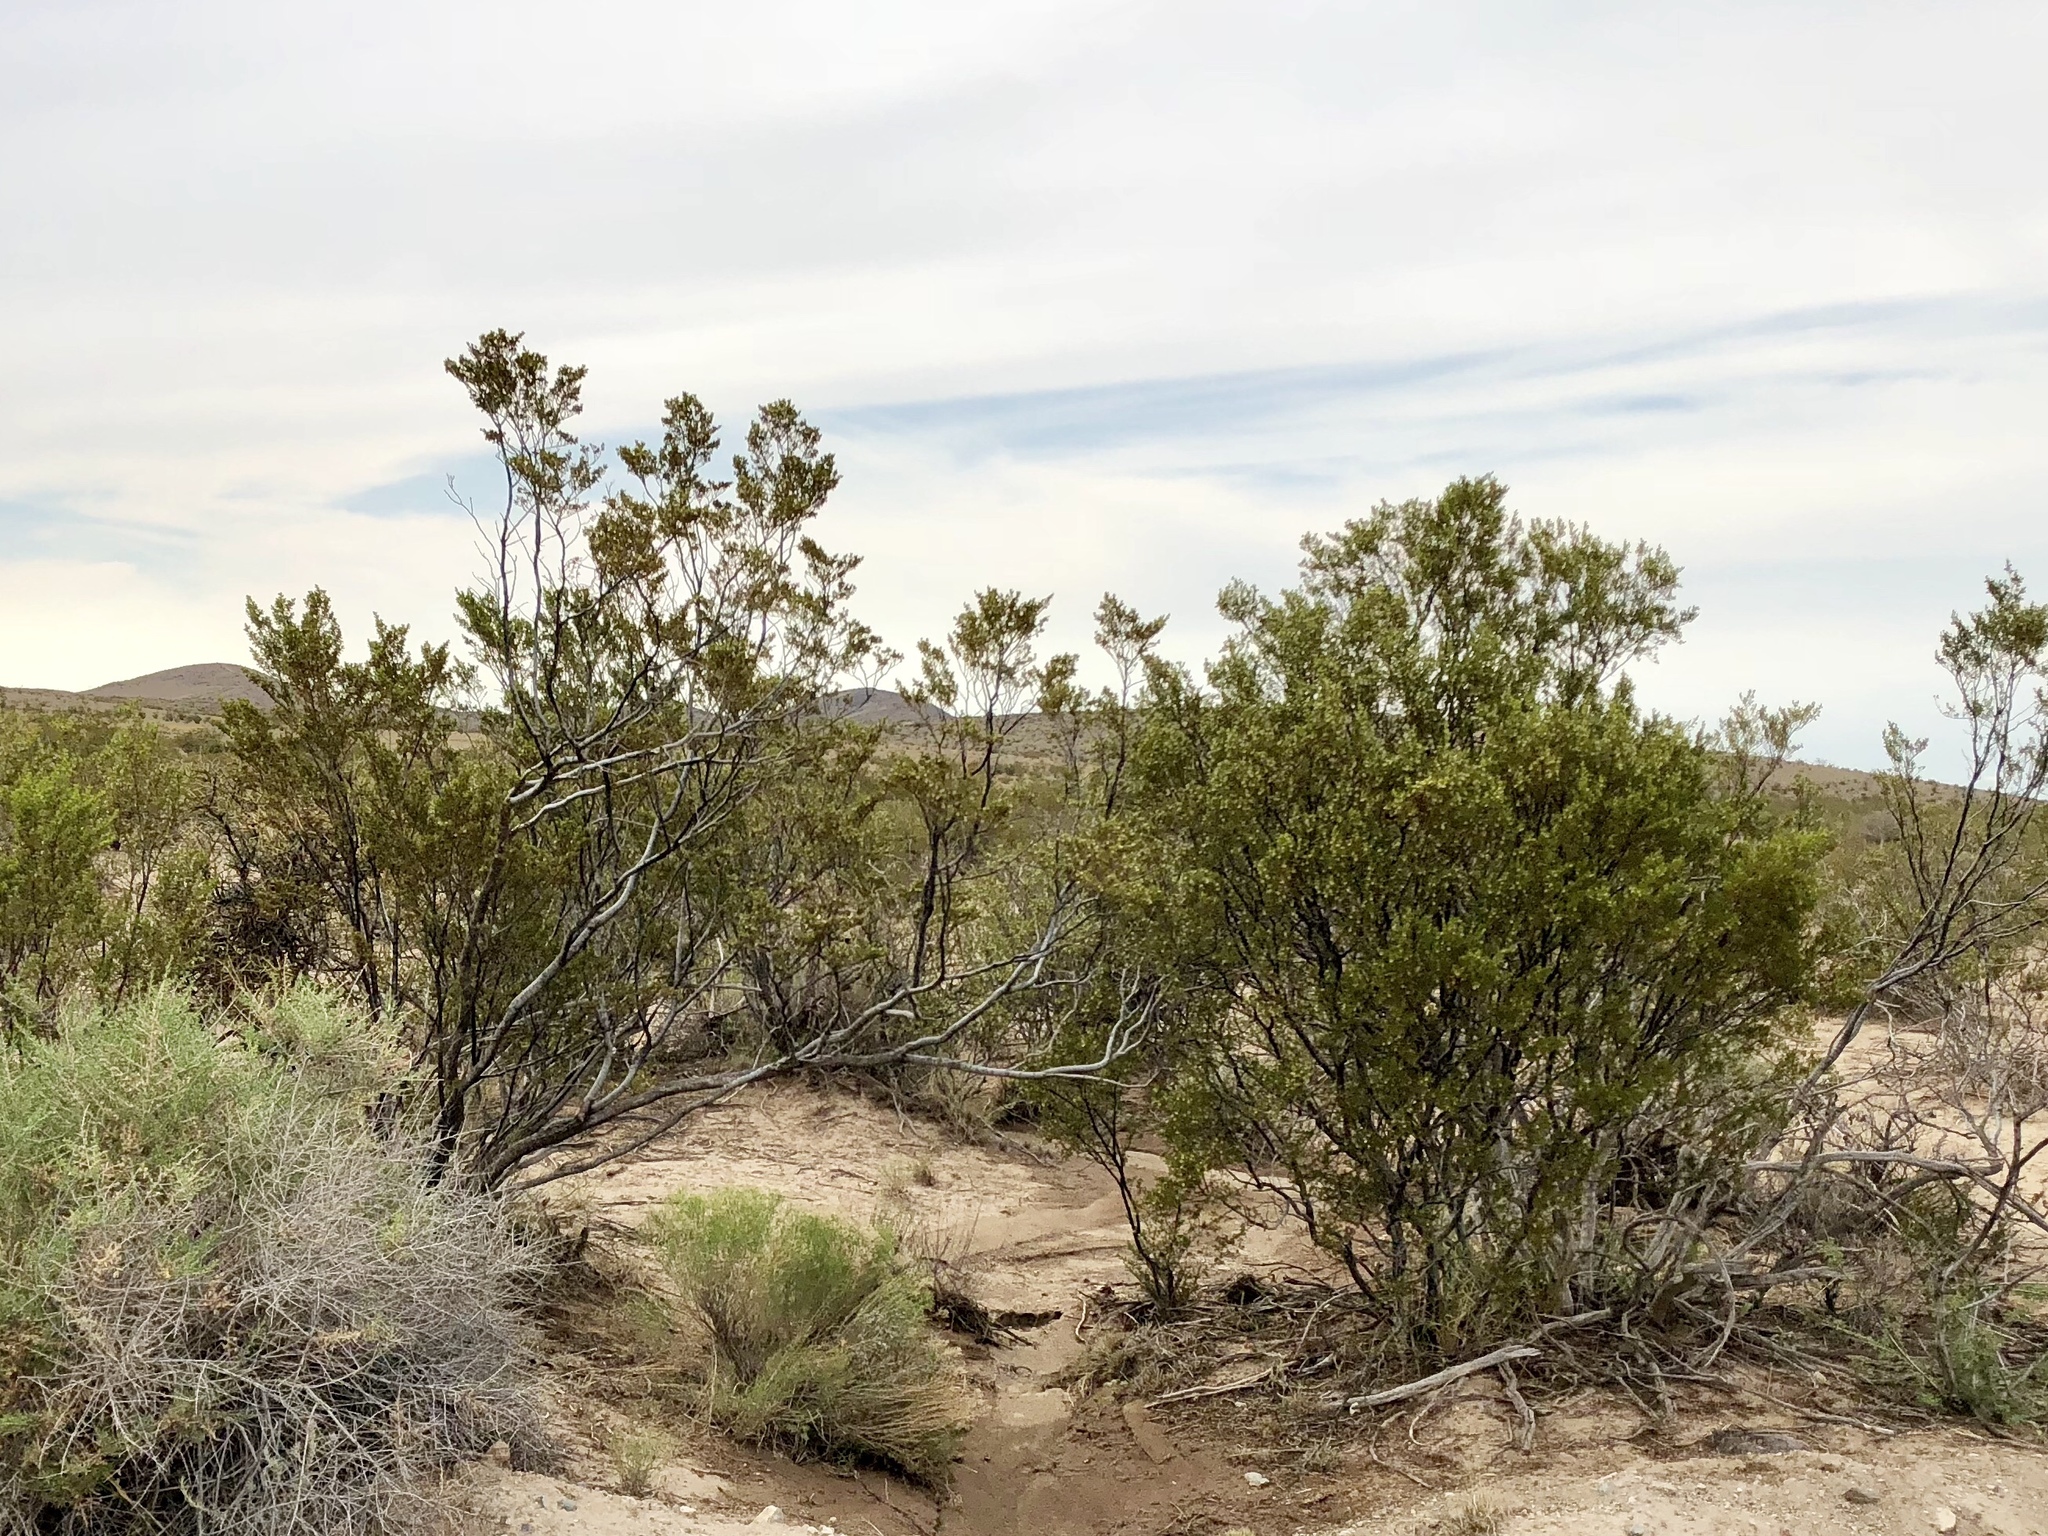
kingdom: Plantae
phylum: Tracheophyta
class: Magnoliopsida
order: Zygophyllales
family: Zygophyllaceae
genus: Larrea
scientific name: Larrea tridentata
